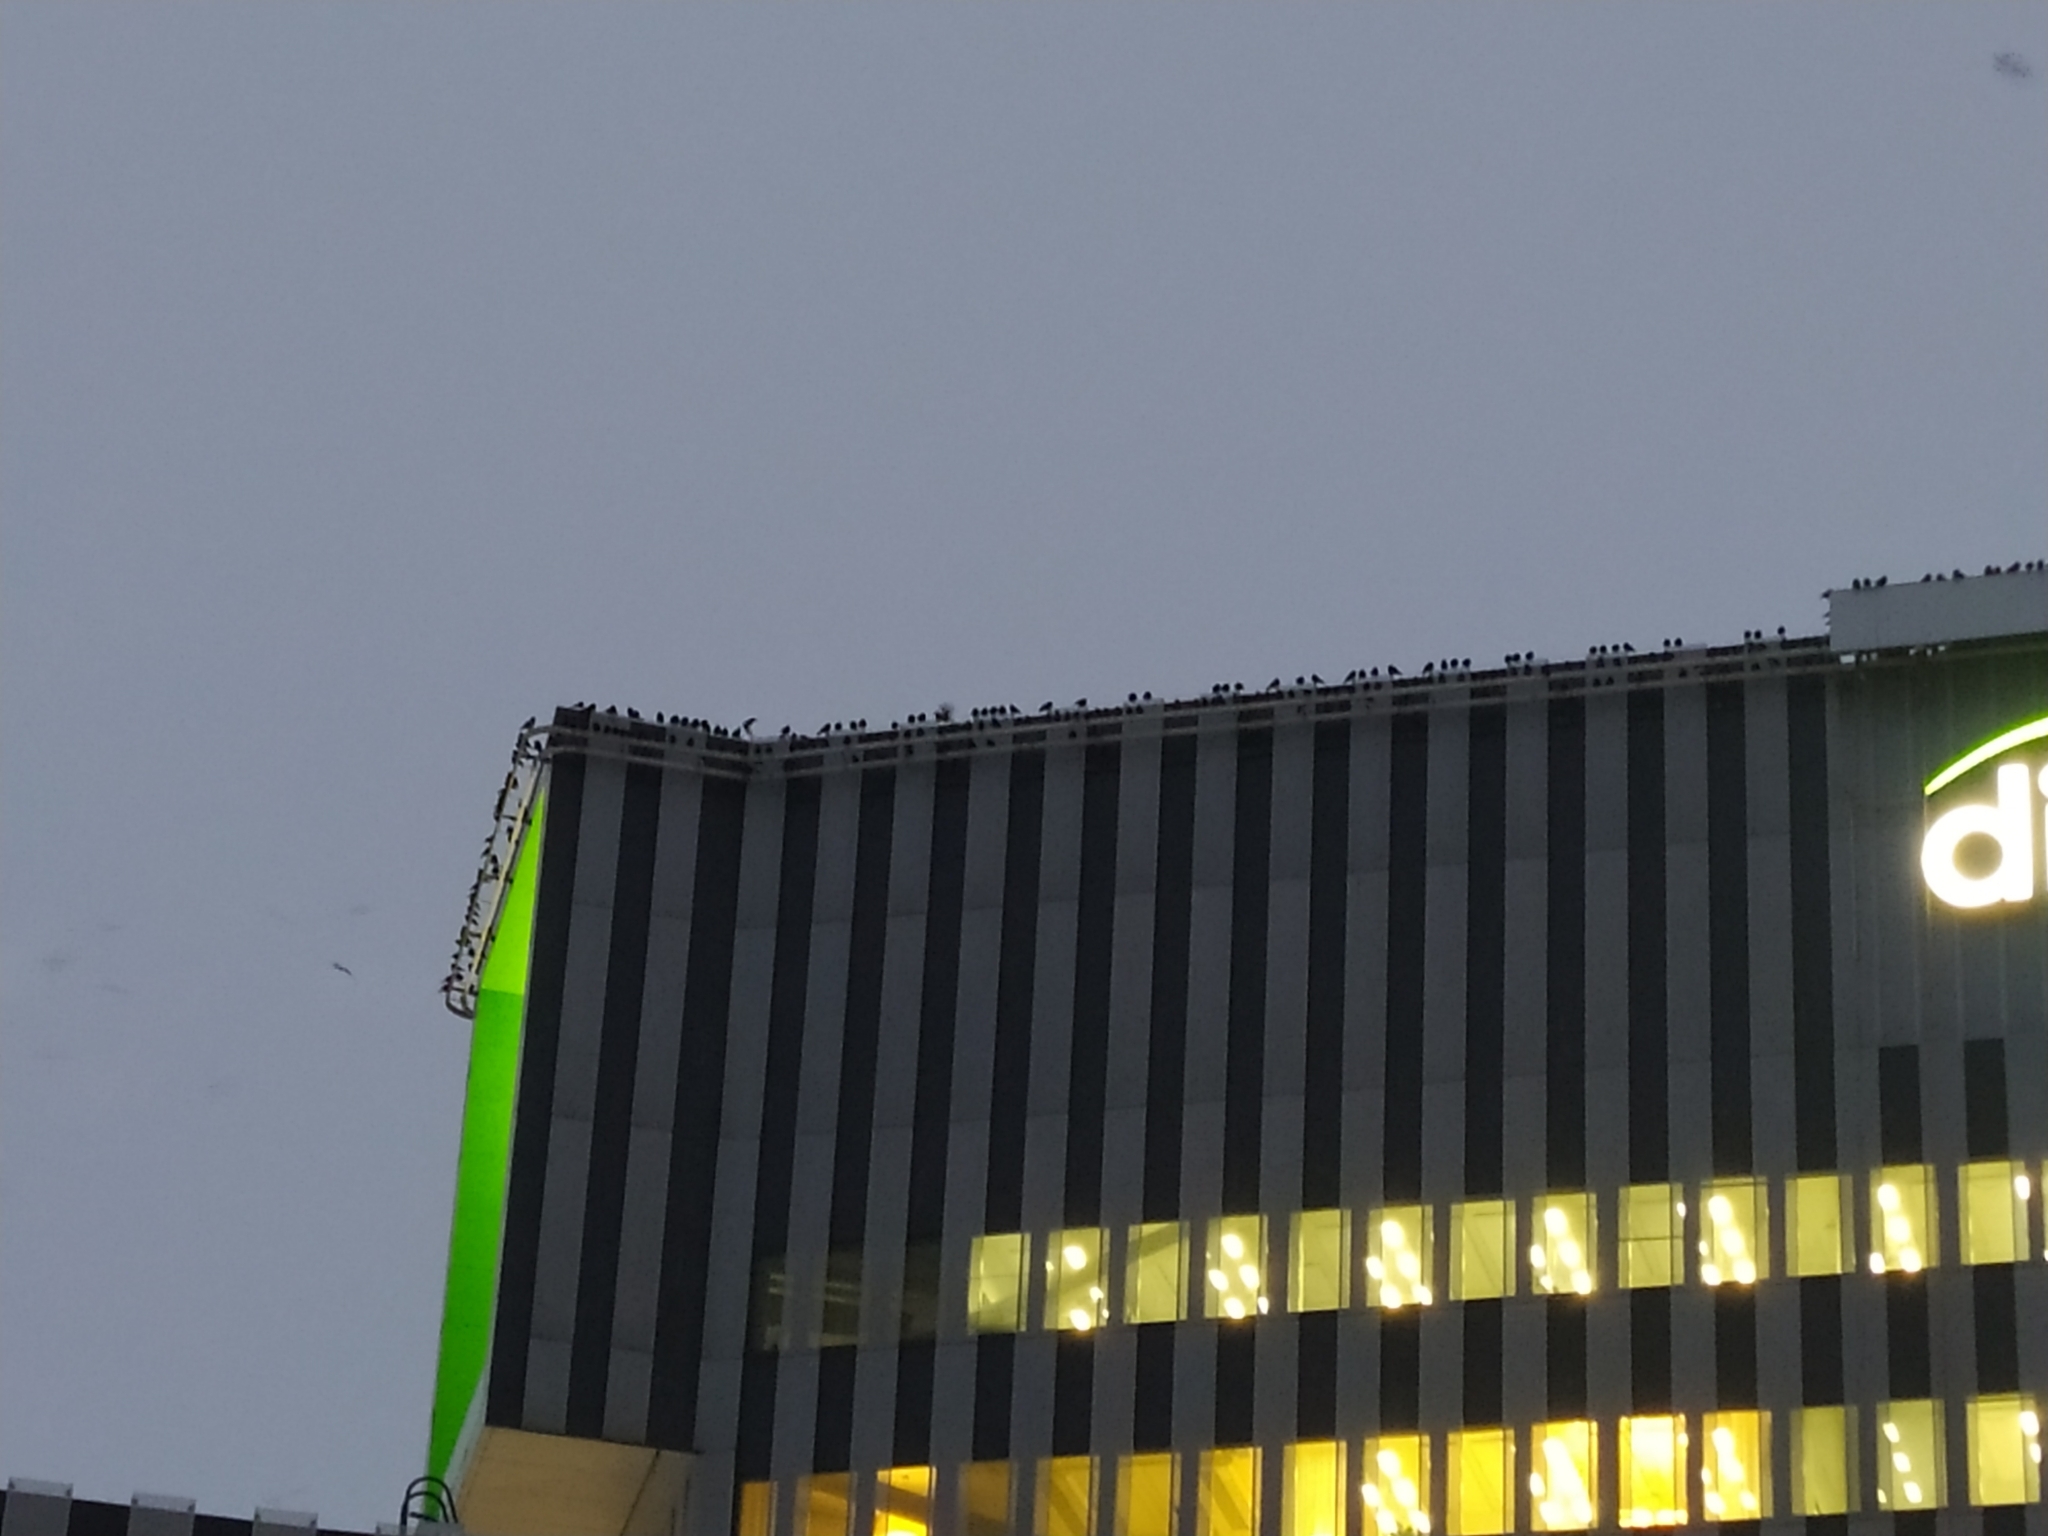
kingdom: Animalia
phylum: Chordata
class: Aves
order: Passeriformes
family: Corvidae
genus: Coloeus
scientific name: Coloeus monedula
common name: Western jackdaw
